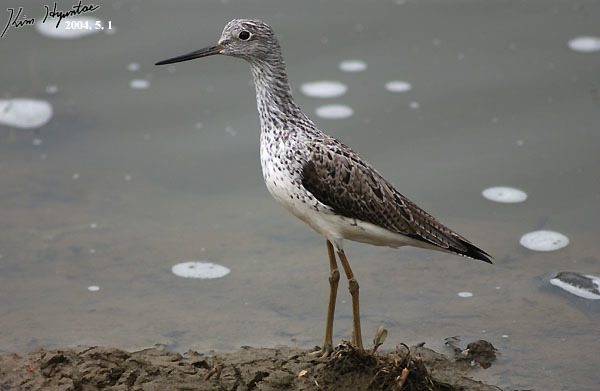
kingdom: Animalia
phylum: Chordata
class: Aves
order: Charadriiformes
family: Scolopacidae
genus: Tringa
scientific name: Tringa nebularia
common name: Common greenshank
